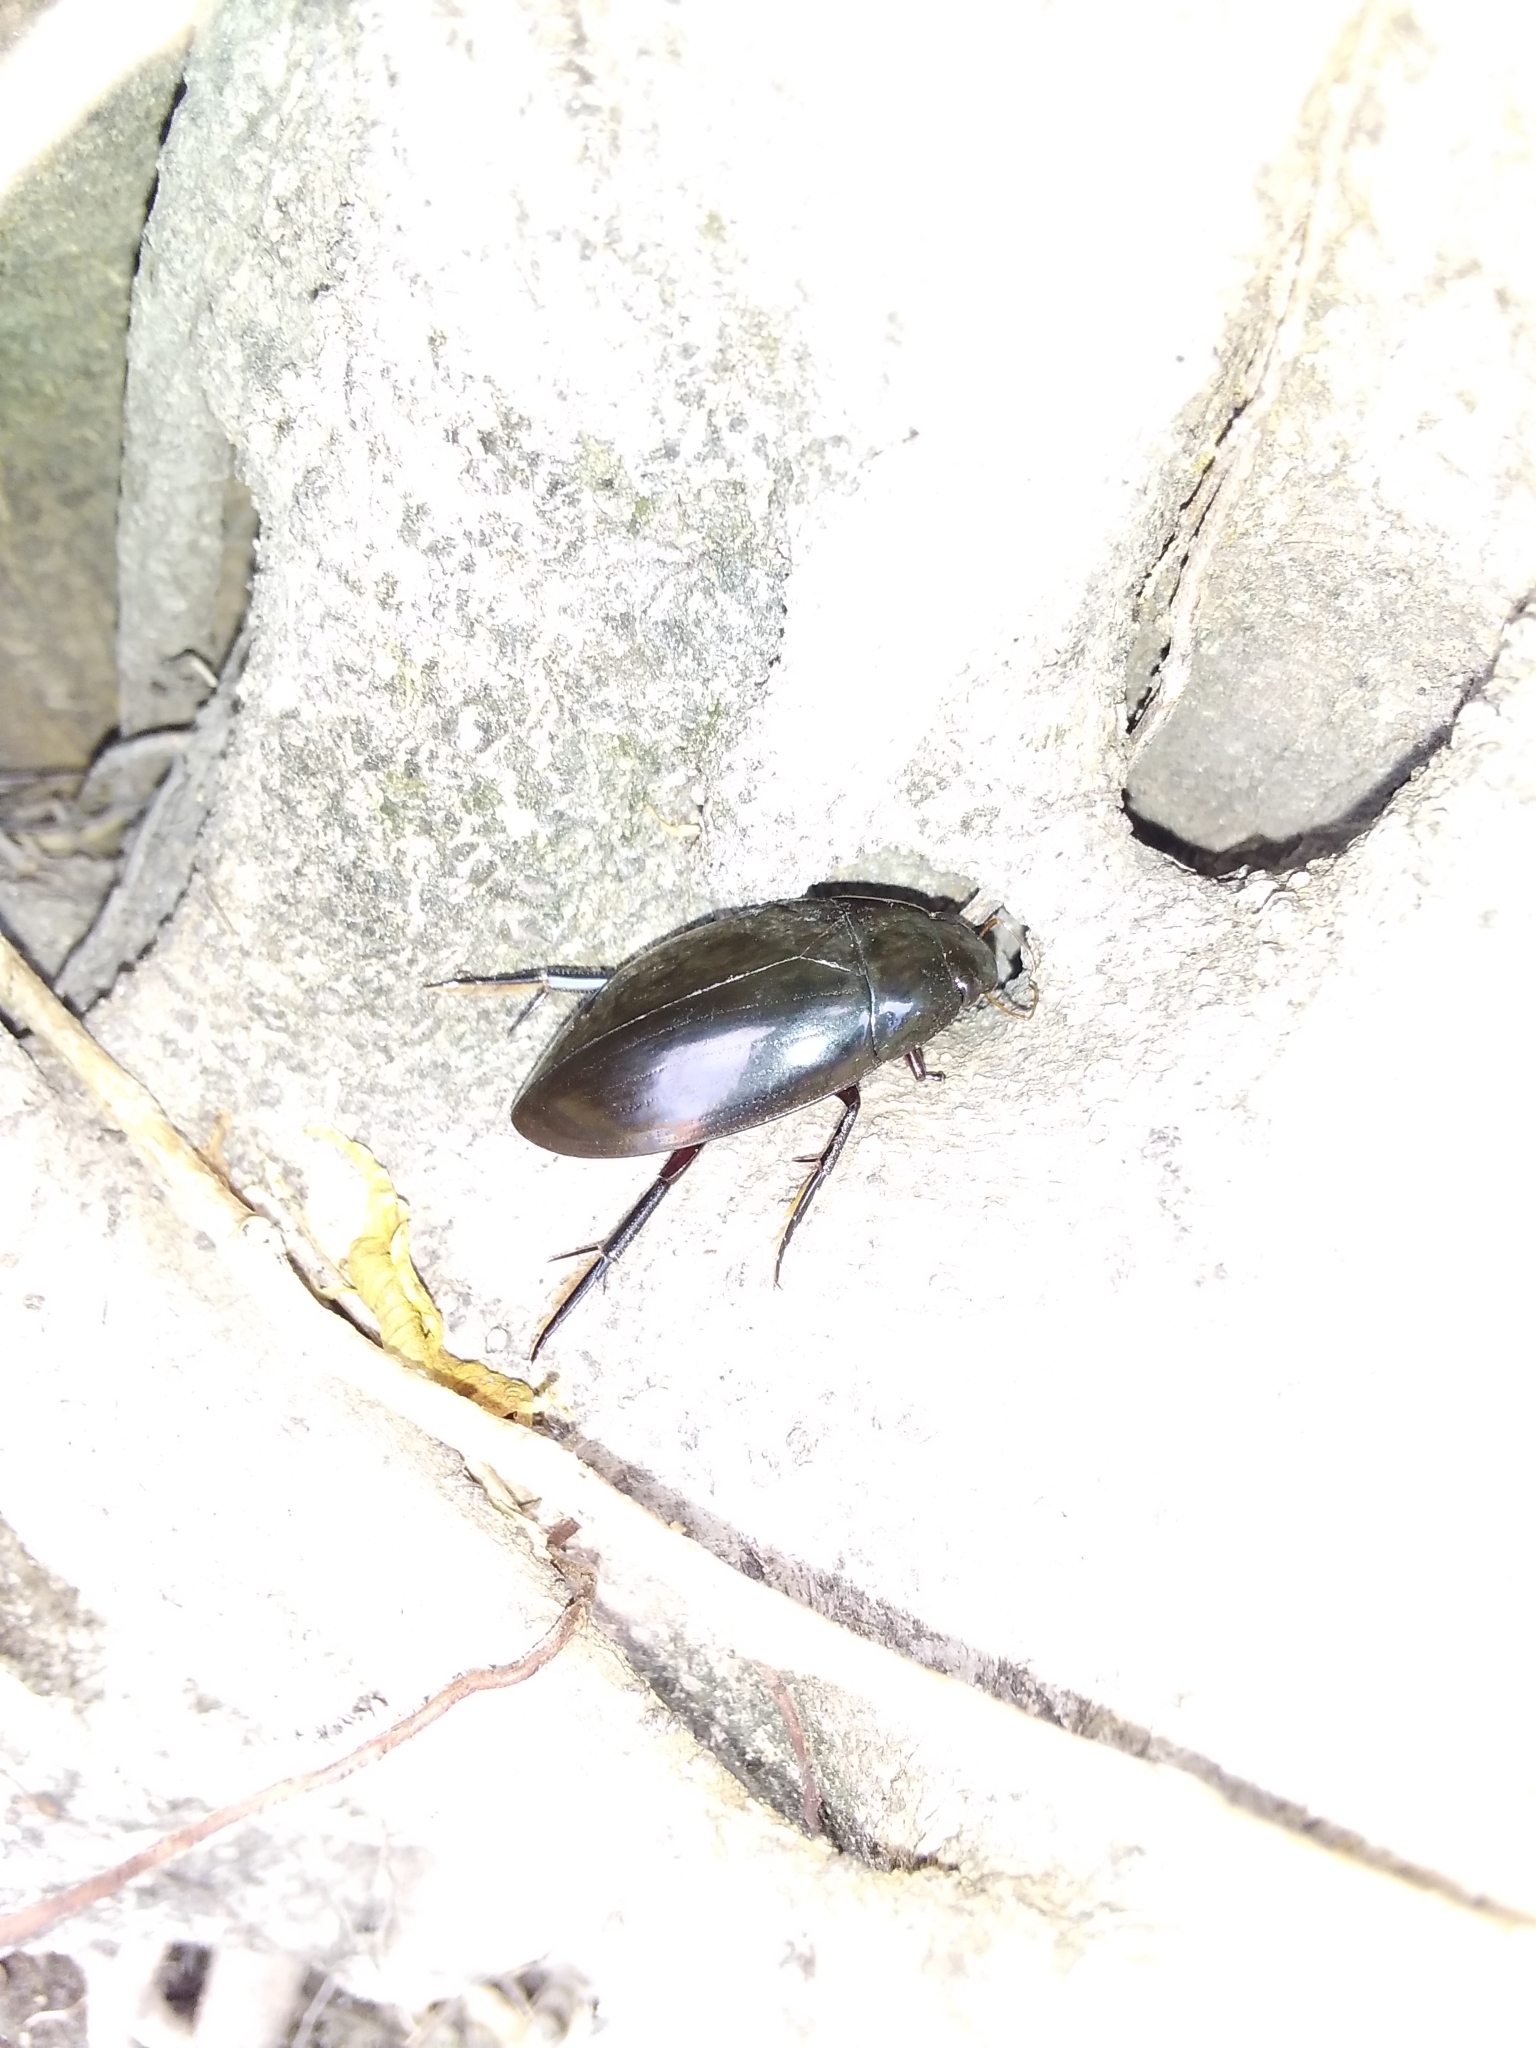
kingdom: Animalia
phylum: Arthropoda
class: Insecta
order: Coleoptera
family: Hydrophilidae
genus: Hydrophilus
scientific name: Hydrophilus
